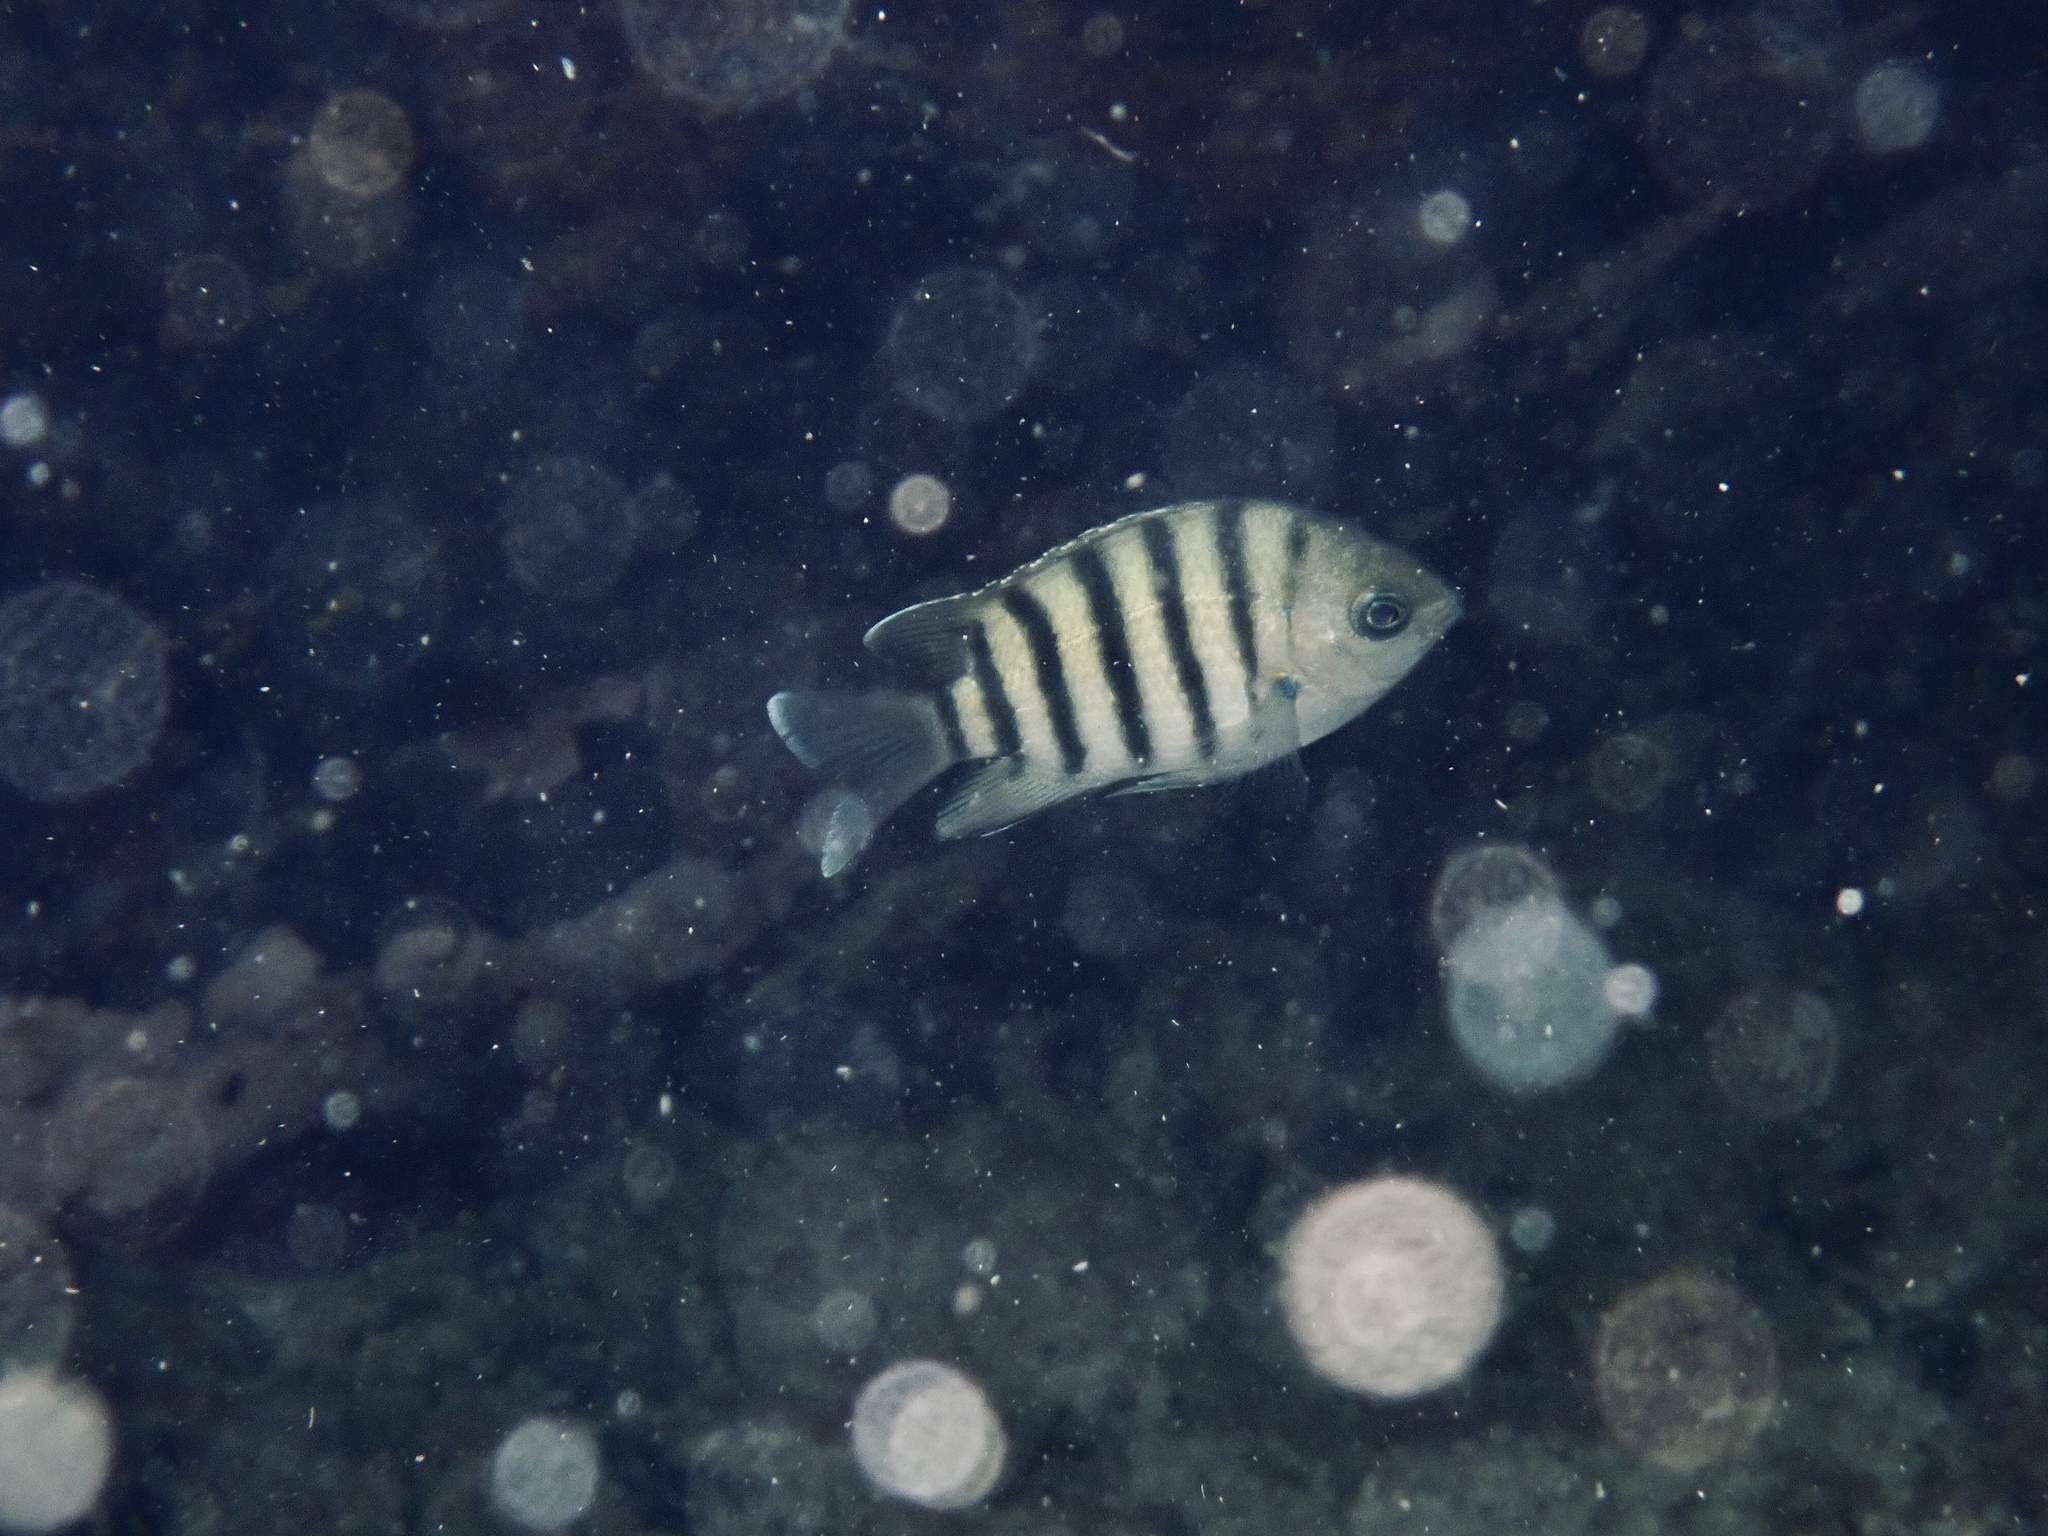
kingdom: Animalia
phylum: Chordata
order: Perciformes
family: Pomacentridae
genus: Abudefduf
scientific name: Abudefduf bengalensis
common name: Bengal sergeant
